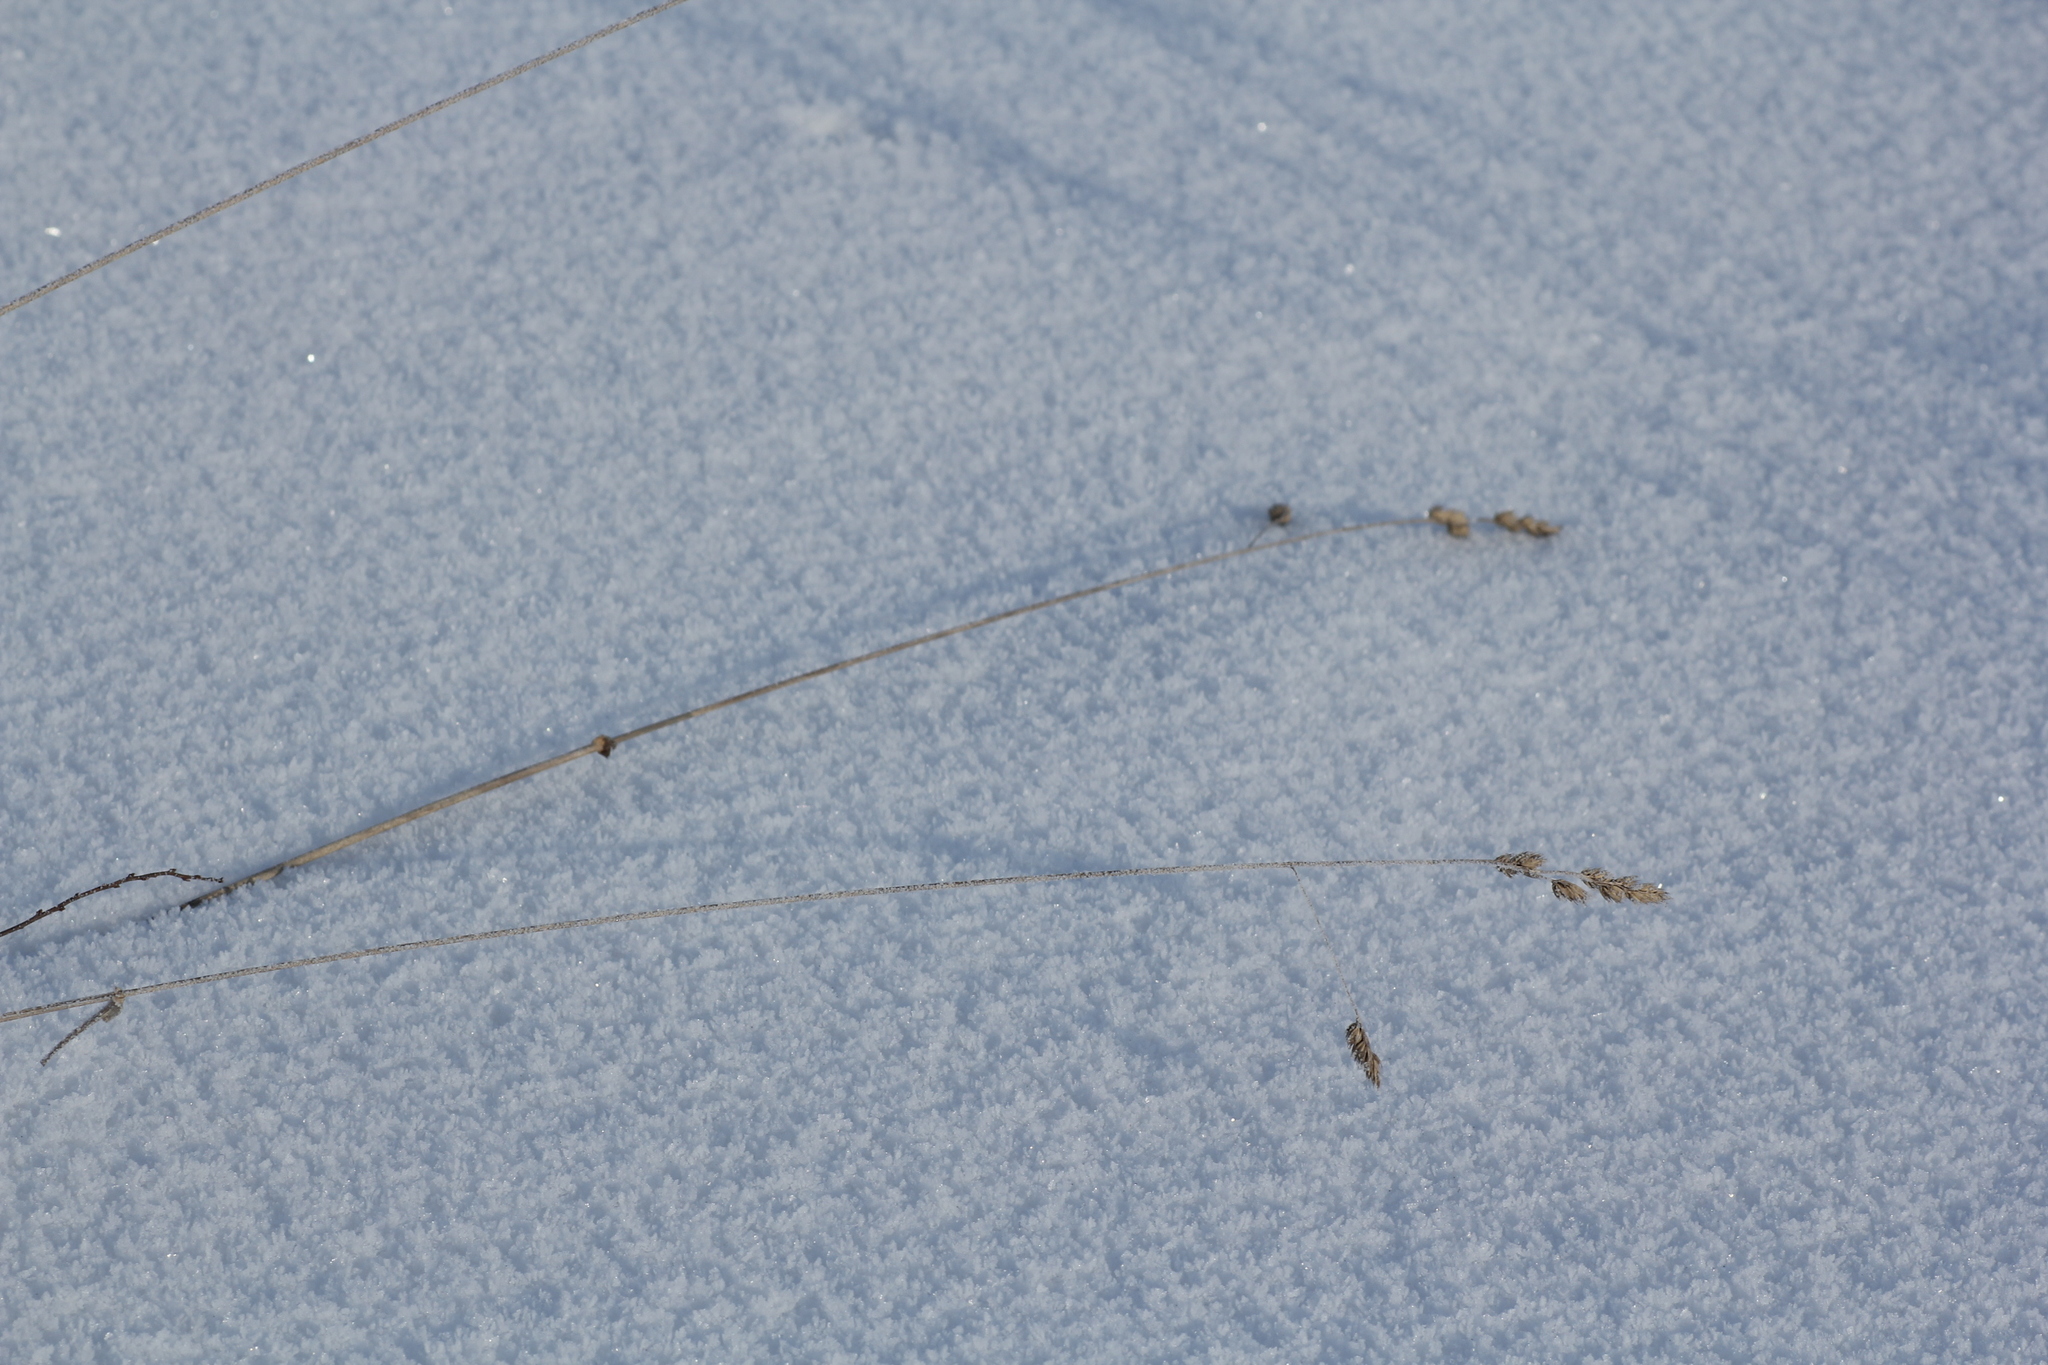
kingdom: Plantae
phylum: Tracheophyta
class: Liliopsida
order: Poales
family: Poaceae
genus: Dactylis
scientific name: Dactylis glomerata
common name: Orchardgrass
